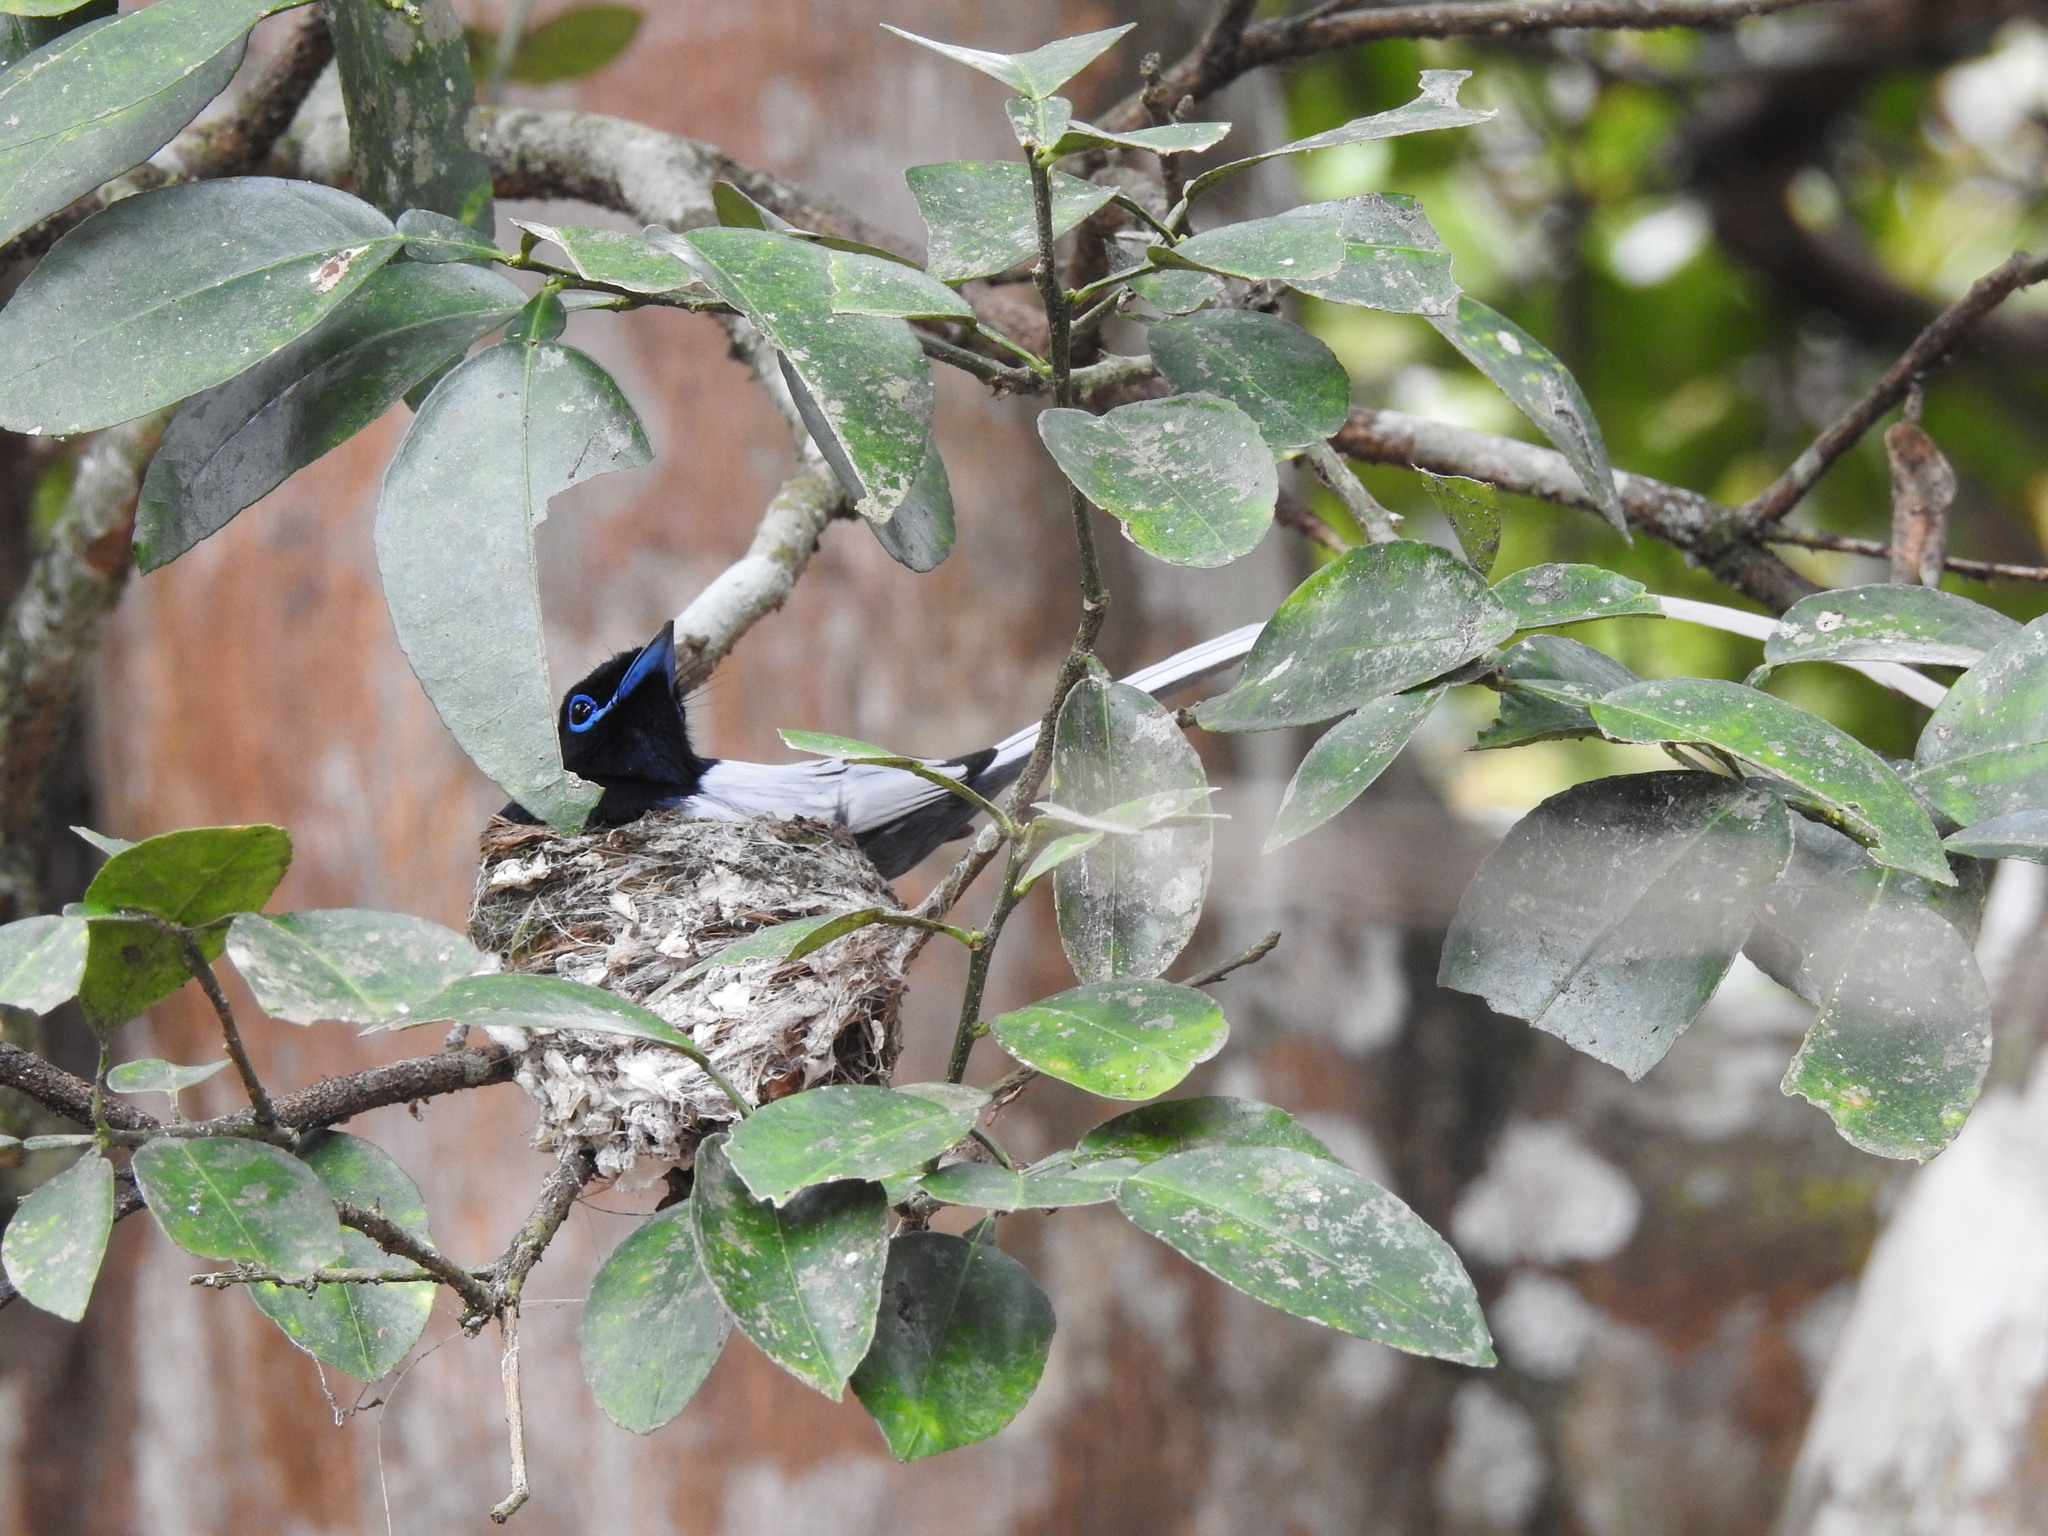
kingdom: Animalia
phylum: Chordata
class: Aves
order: Passeriformes
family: Monarchidae
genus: Terpsiphone
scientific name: Terpsiphone viridis
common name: African paradise flycatcher
